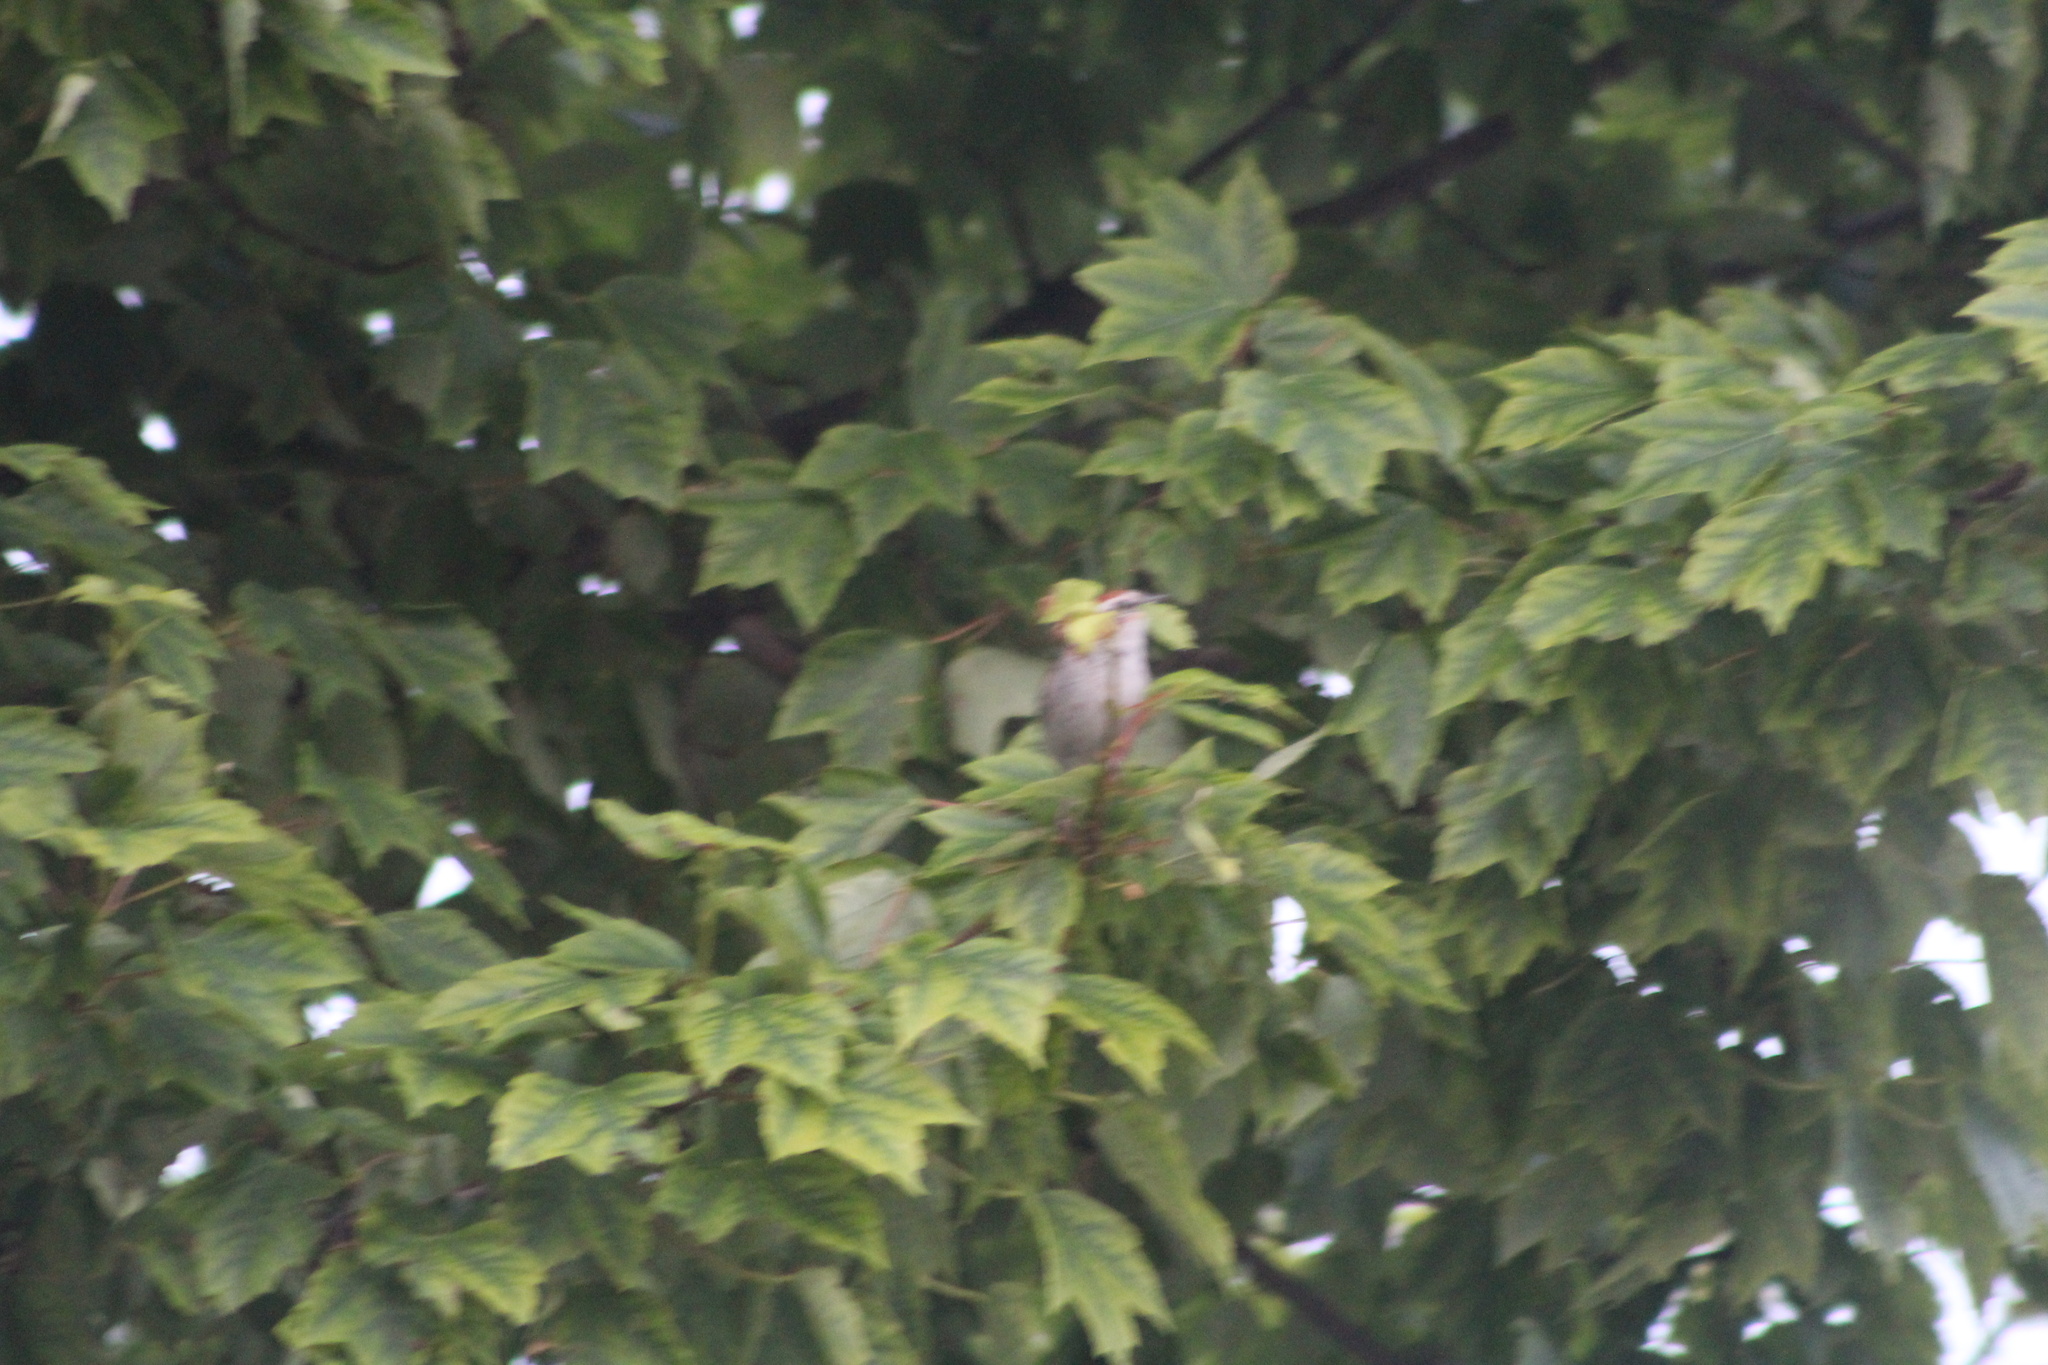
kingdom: Animalia
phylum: Chordata
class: Aves
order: Passeriformes
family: Passerellidae
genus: Spizella
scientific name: Spizella passerina
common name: Chipping sparrow
